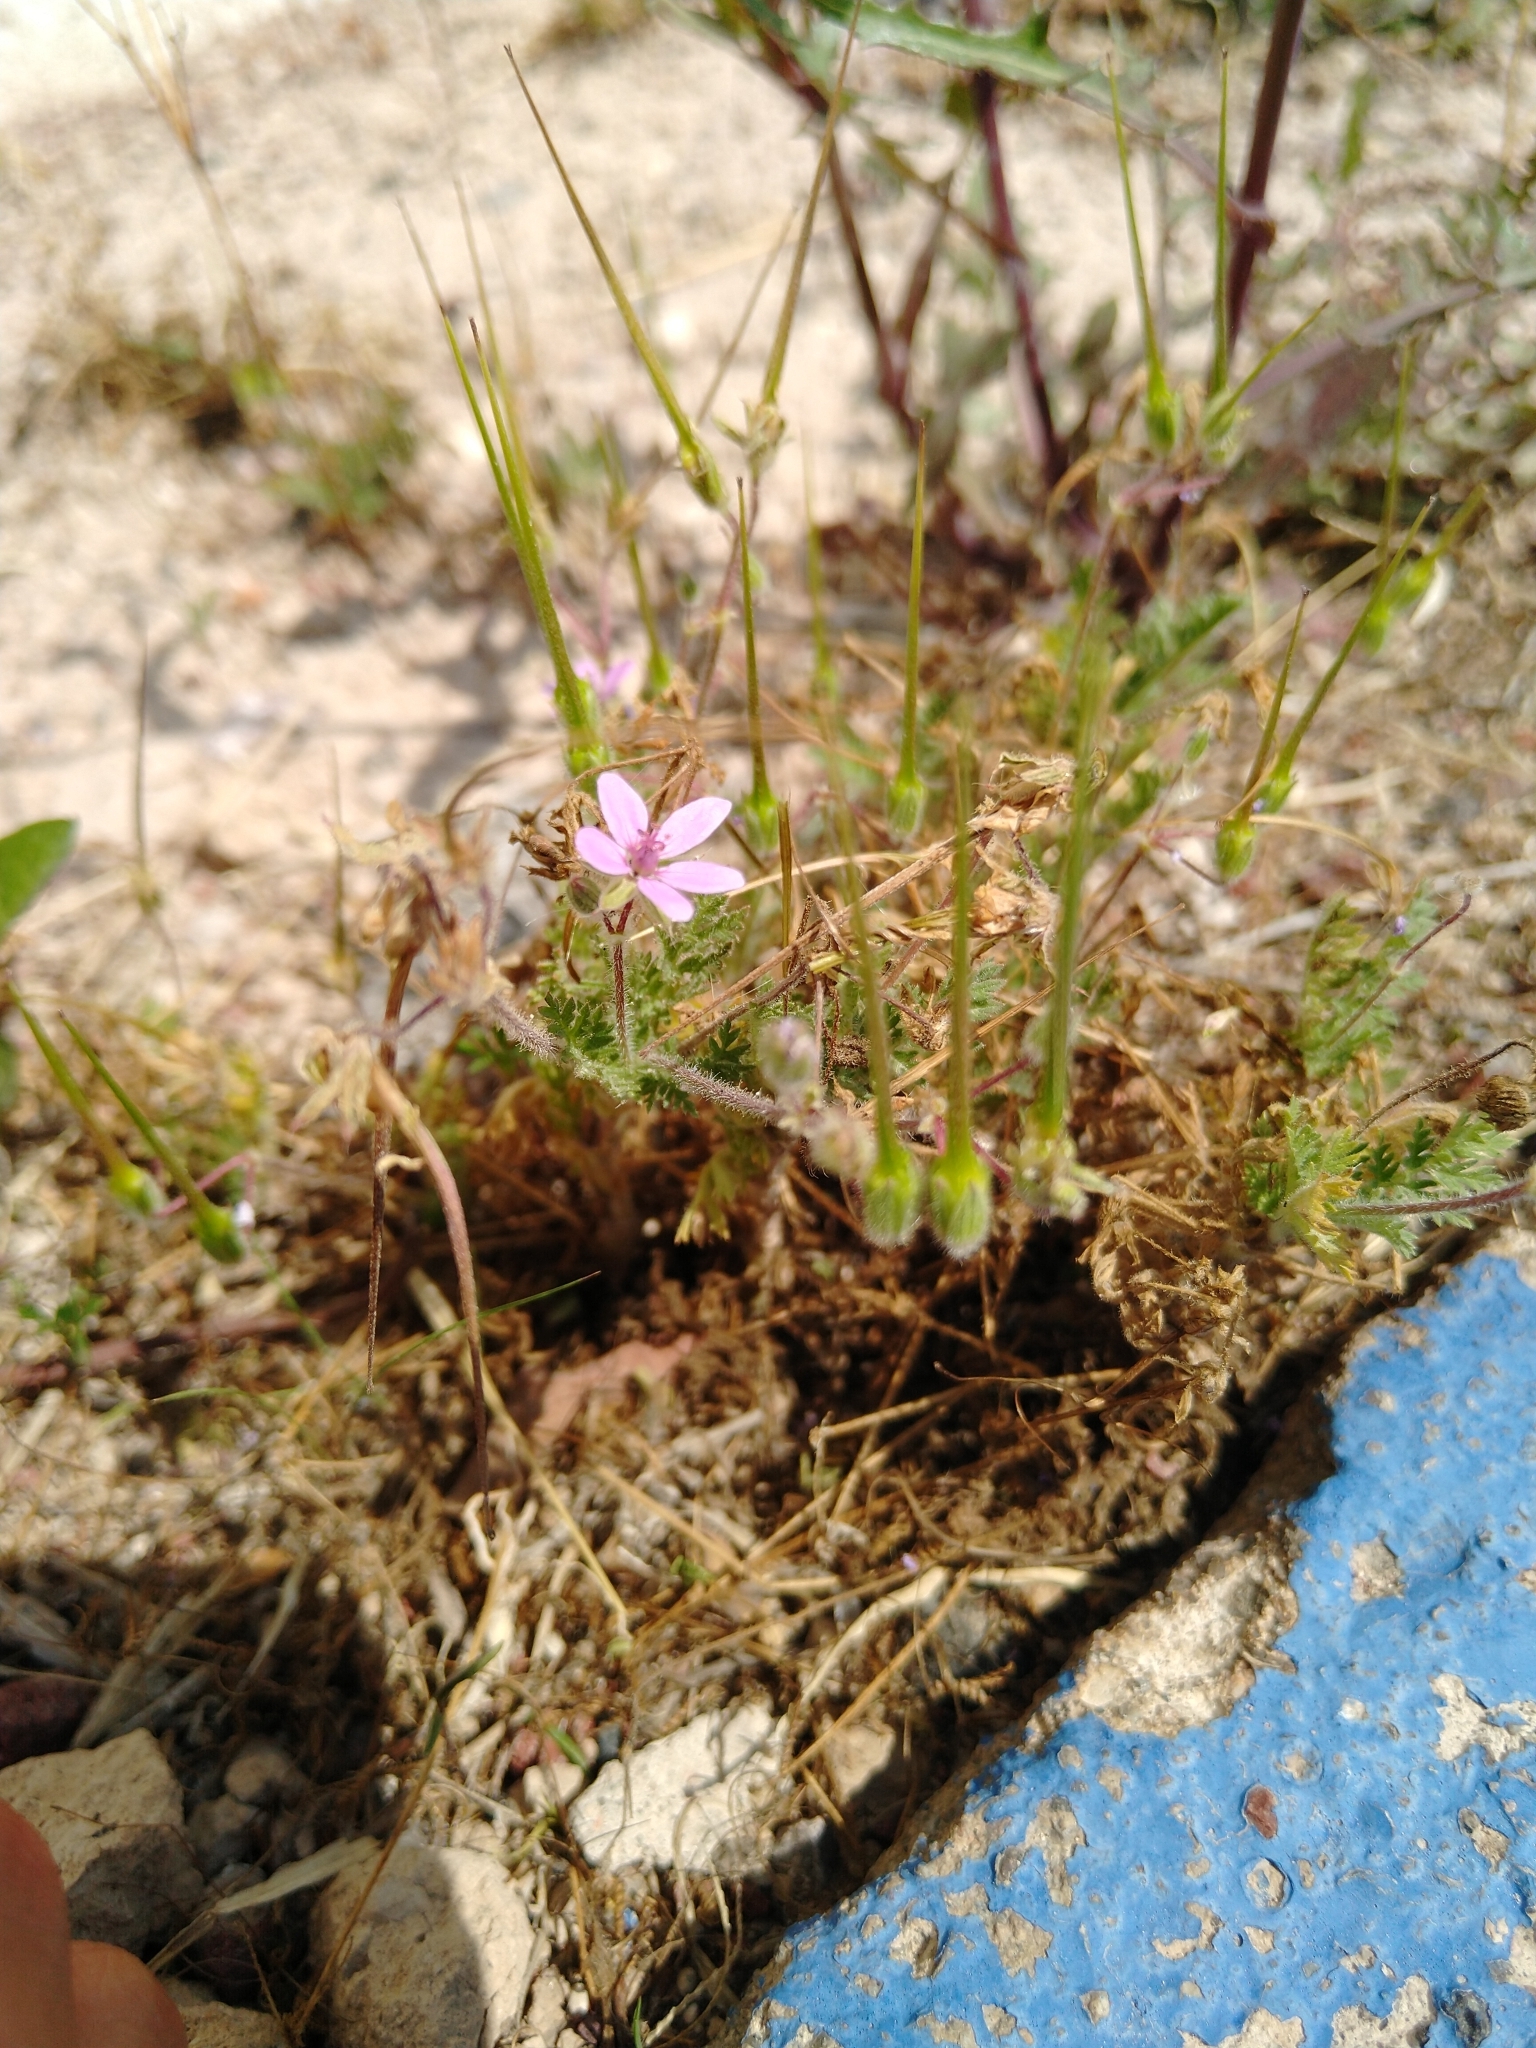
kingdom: Plantae
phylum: Tracheophyta
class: Magnoliopsida
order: Geraniales
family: Geraniaceae
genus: Erodium
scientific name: Erodium cicutarium
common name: Common stork's-bill
